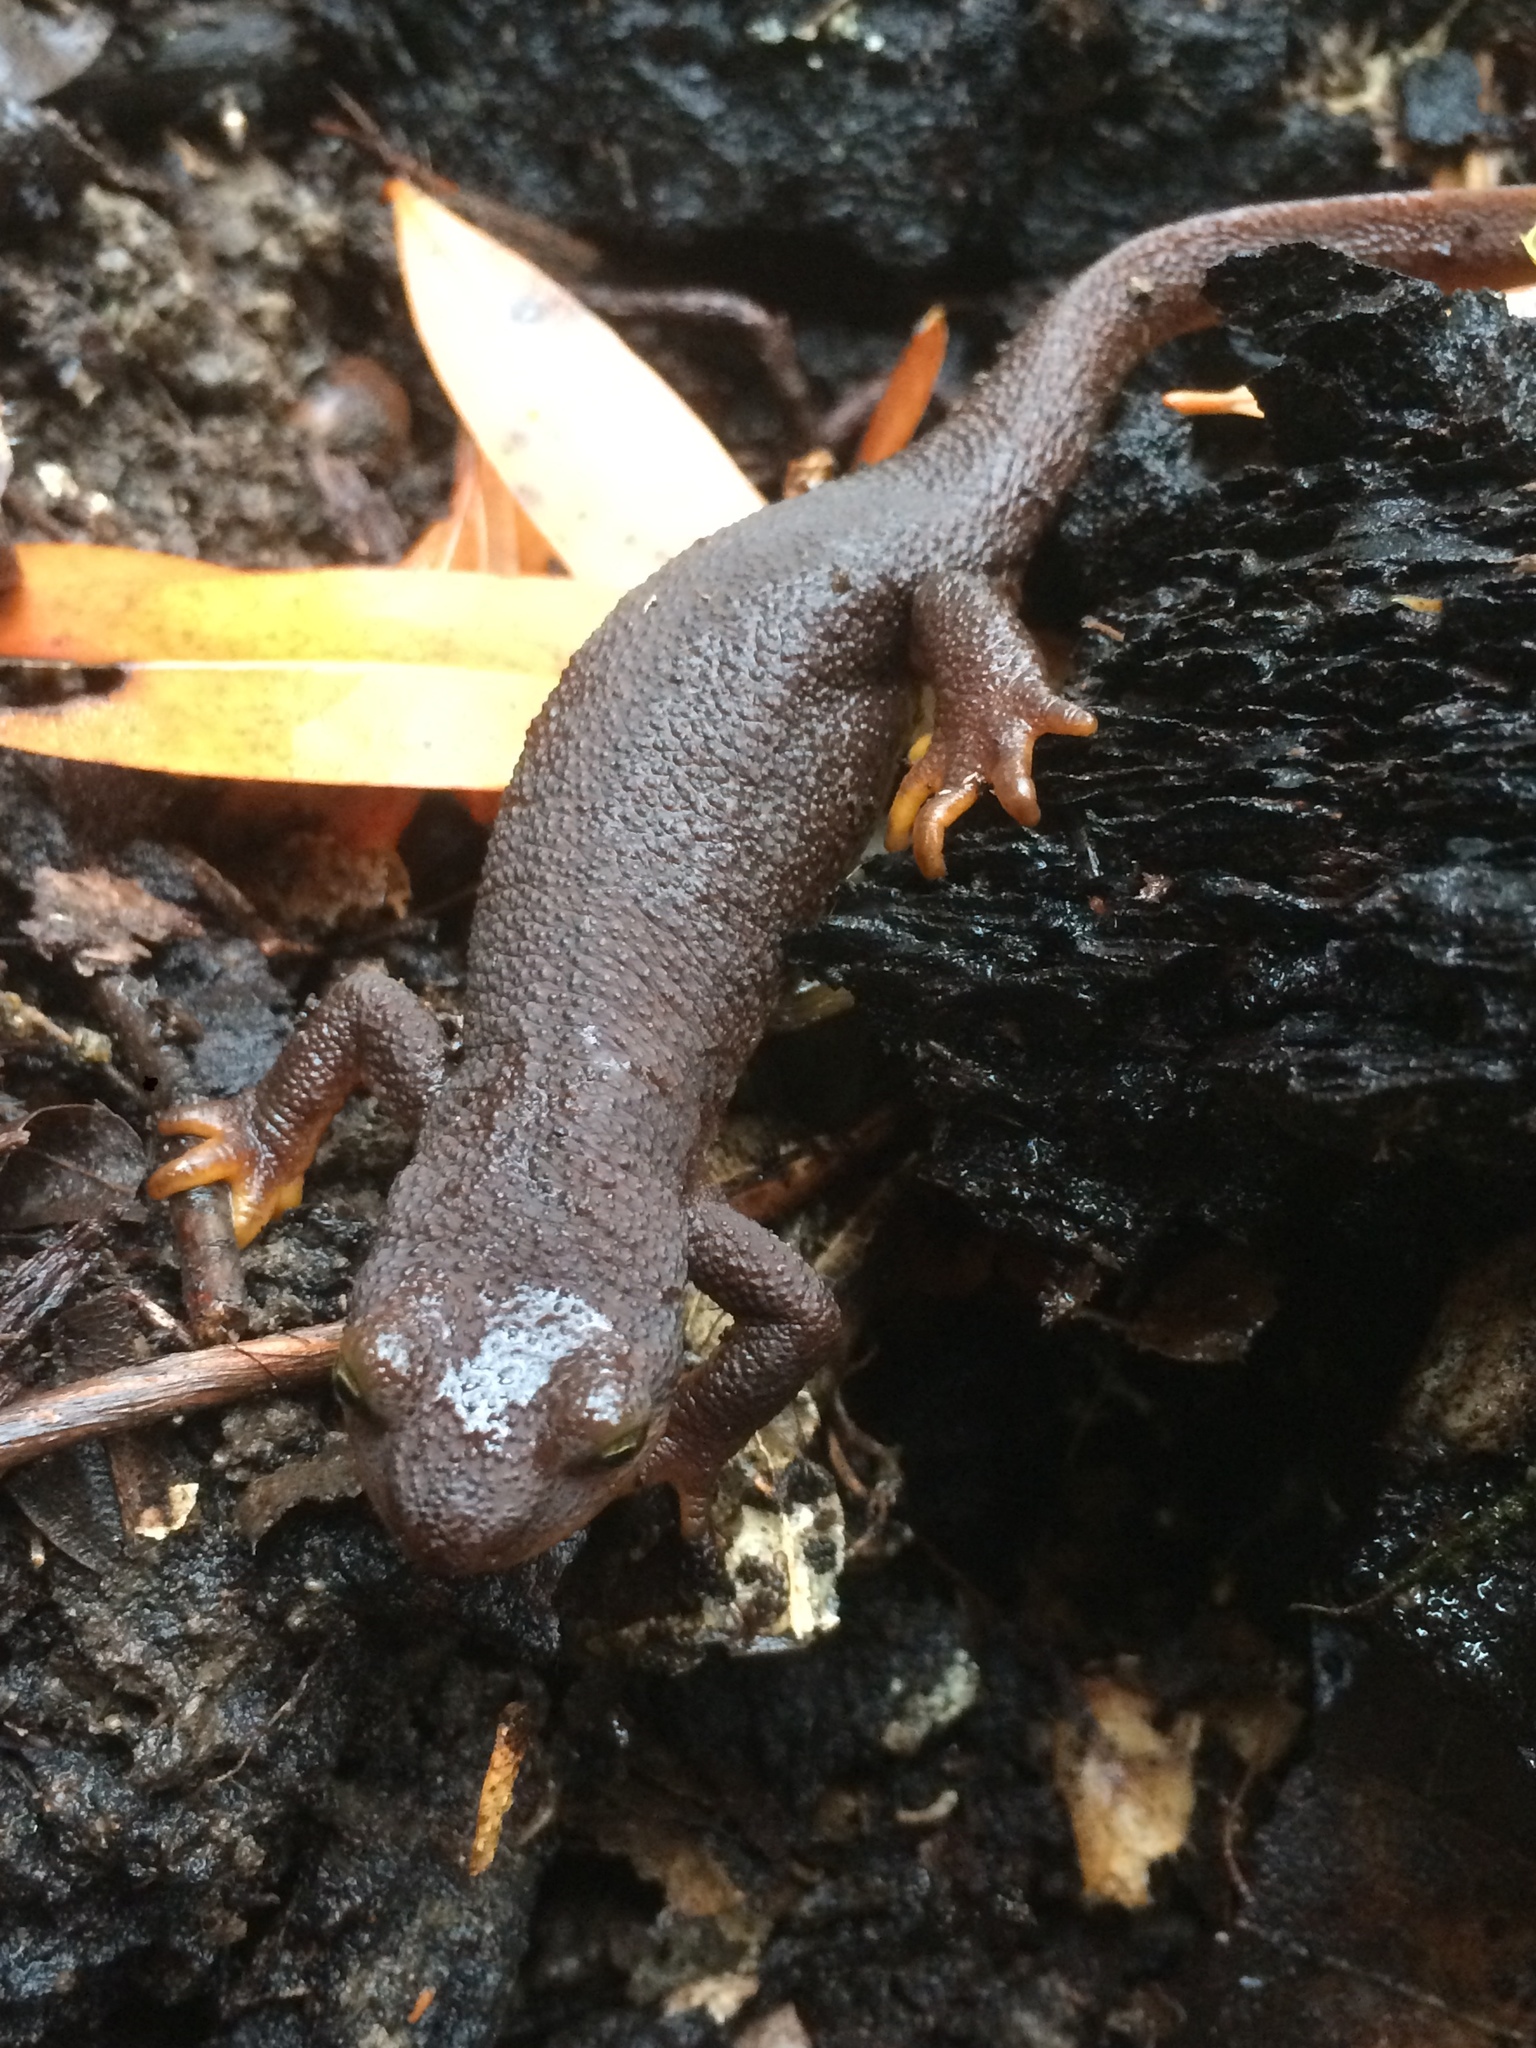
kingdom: Animalia
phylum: Chordata
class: Amphibia
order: Caudata
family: Salamandridae
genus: Taricha
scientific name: Taricha torosa
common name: California newt
